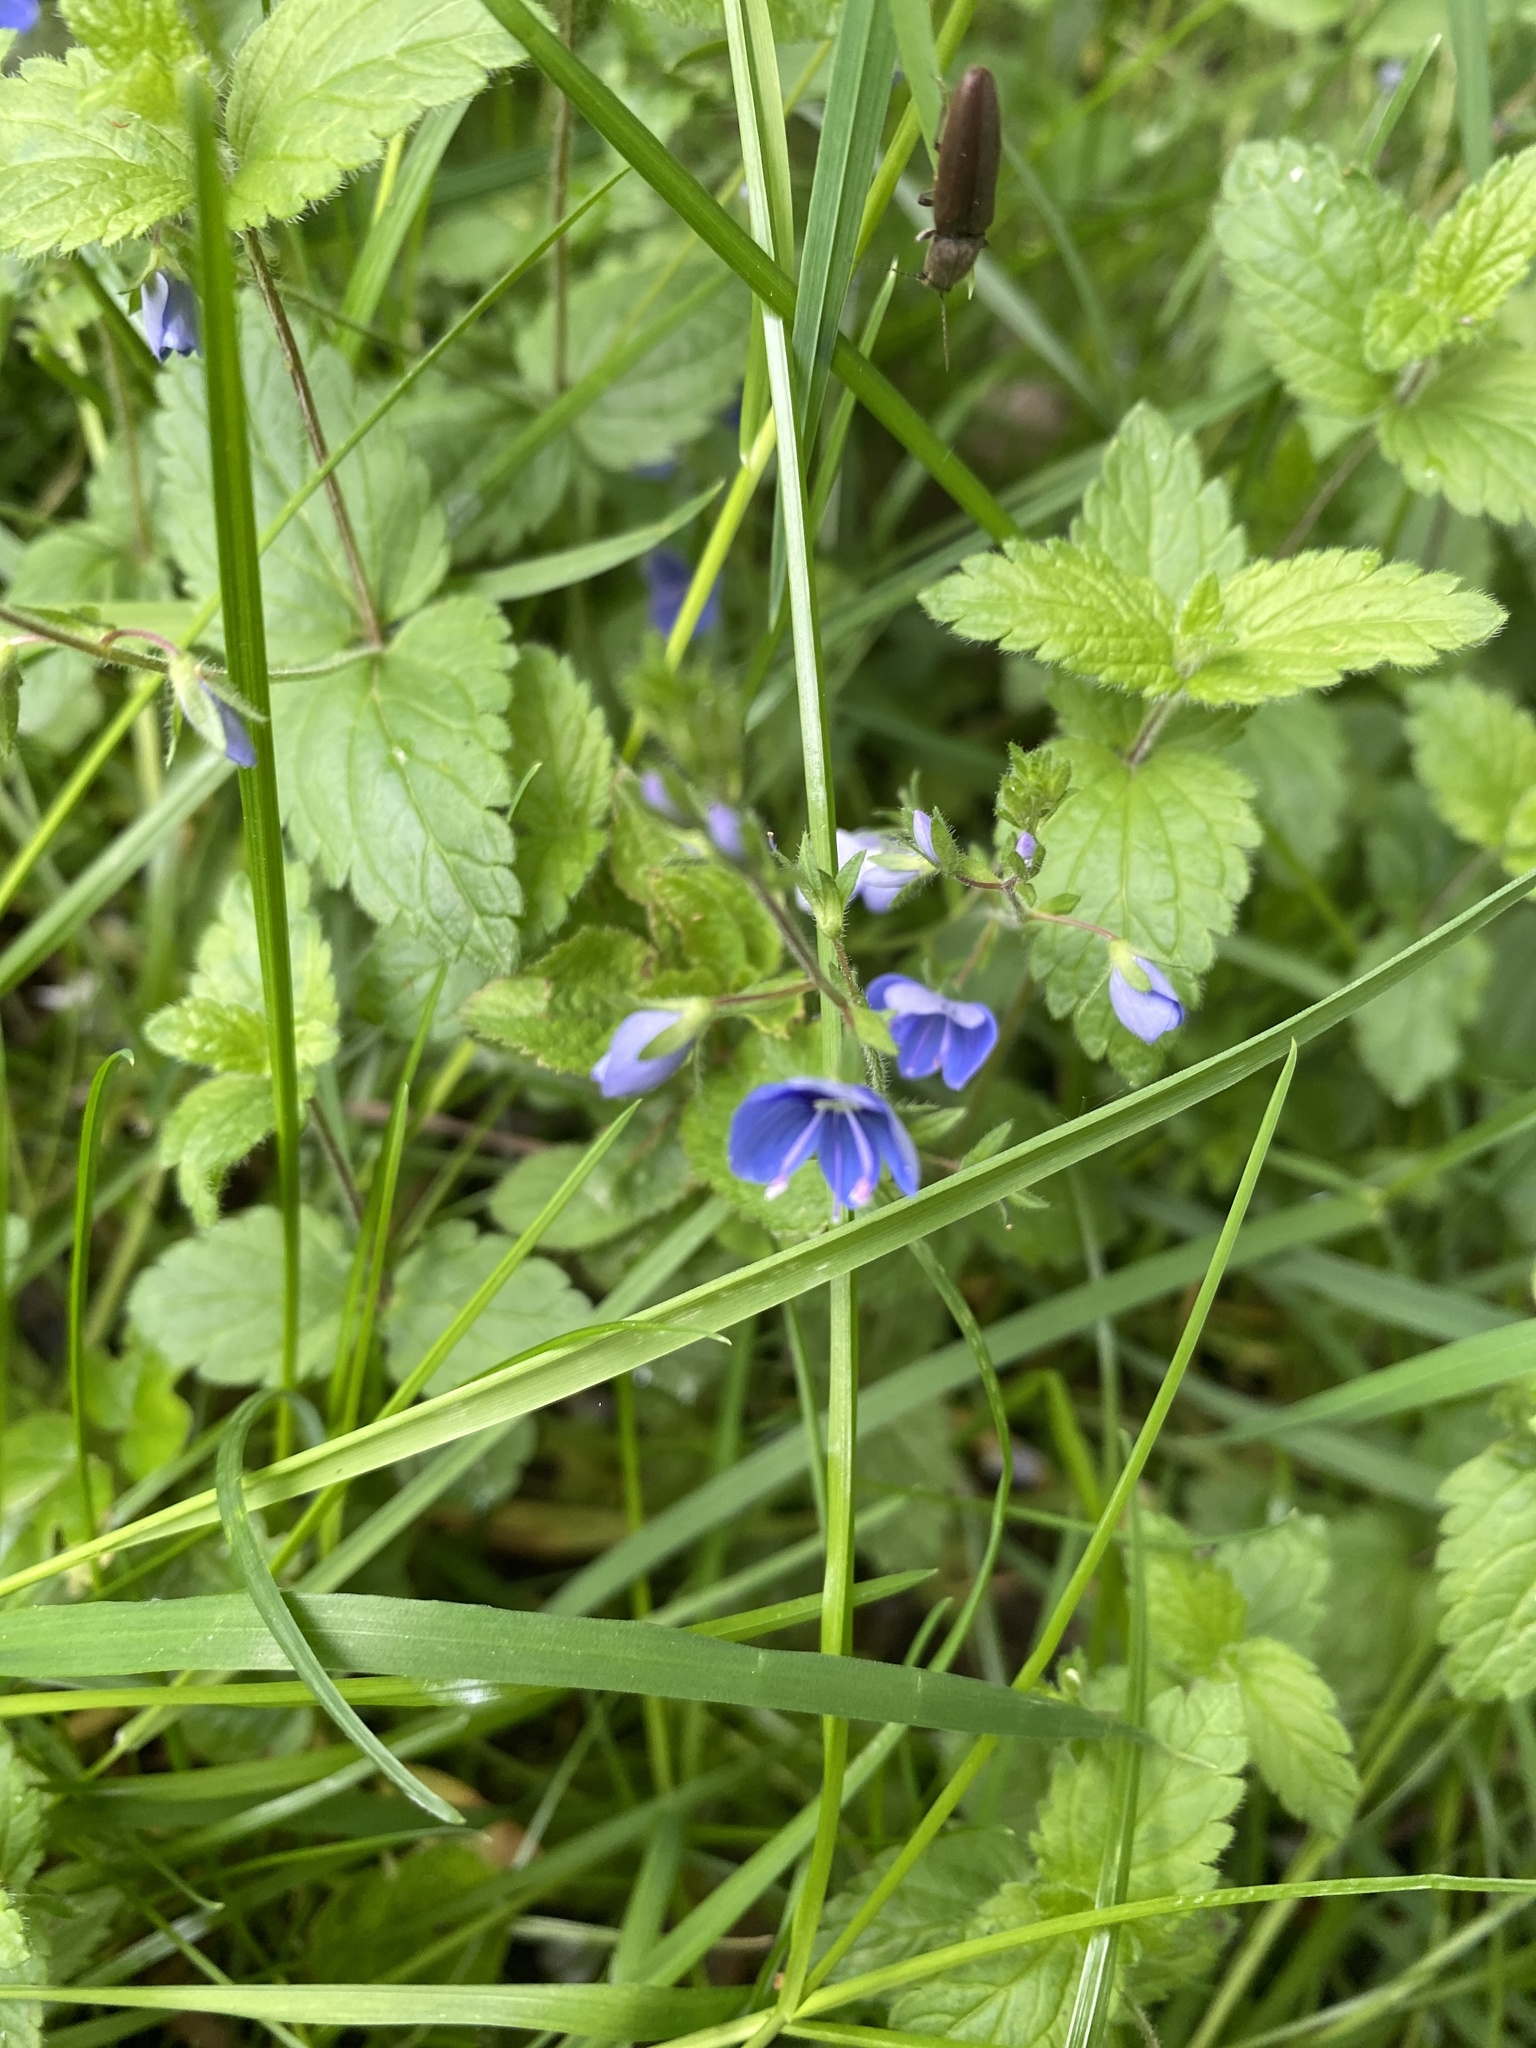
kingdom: Plantae
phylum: Tracheophyta
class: Magnoliopsida
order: Lamiales
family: Plantaginaceae
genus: Veronica
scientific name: Veronica chamaedrys
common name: Germander speedwell
